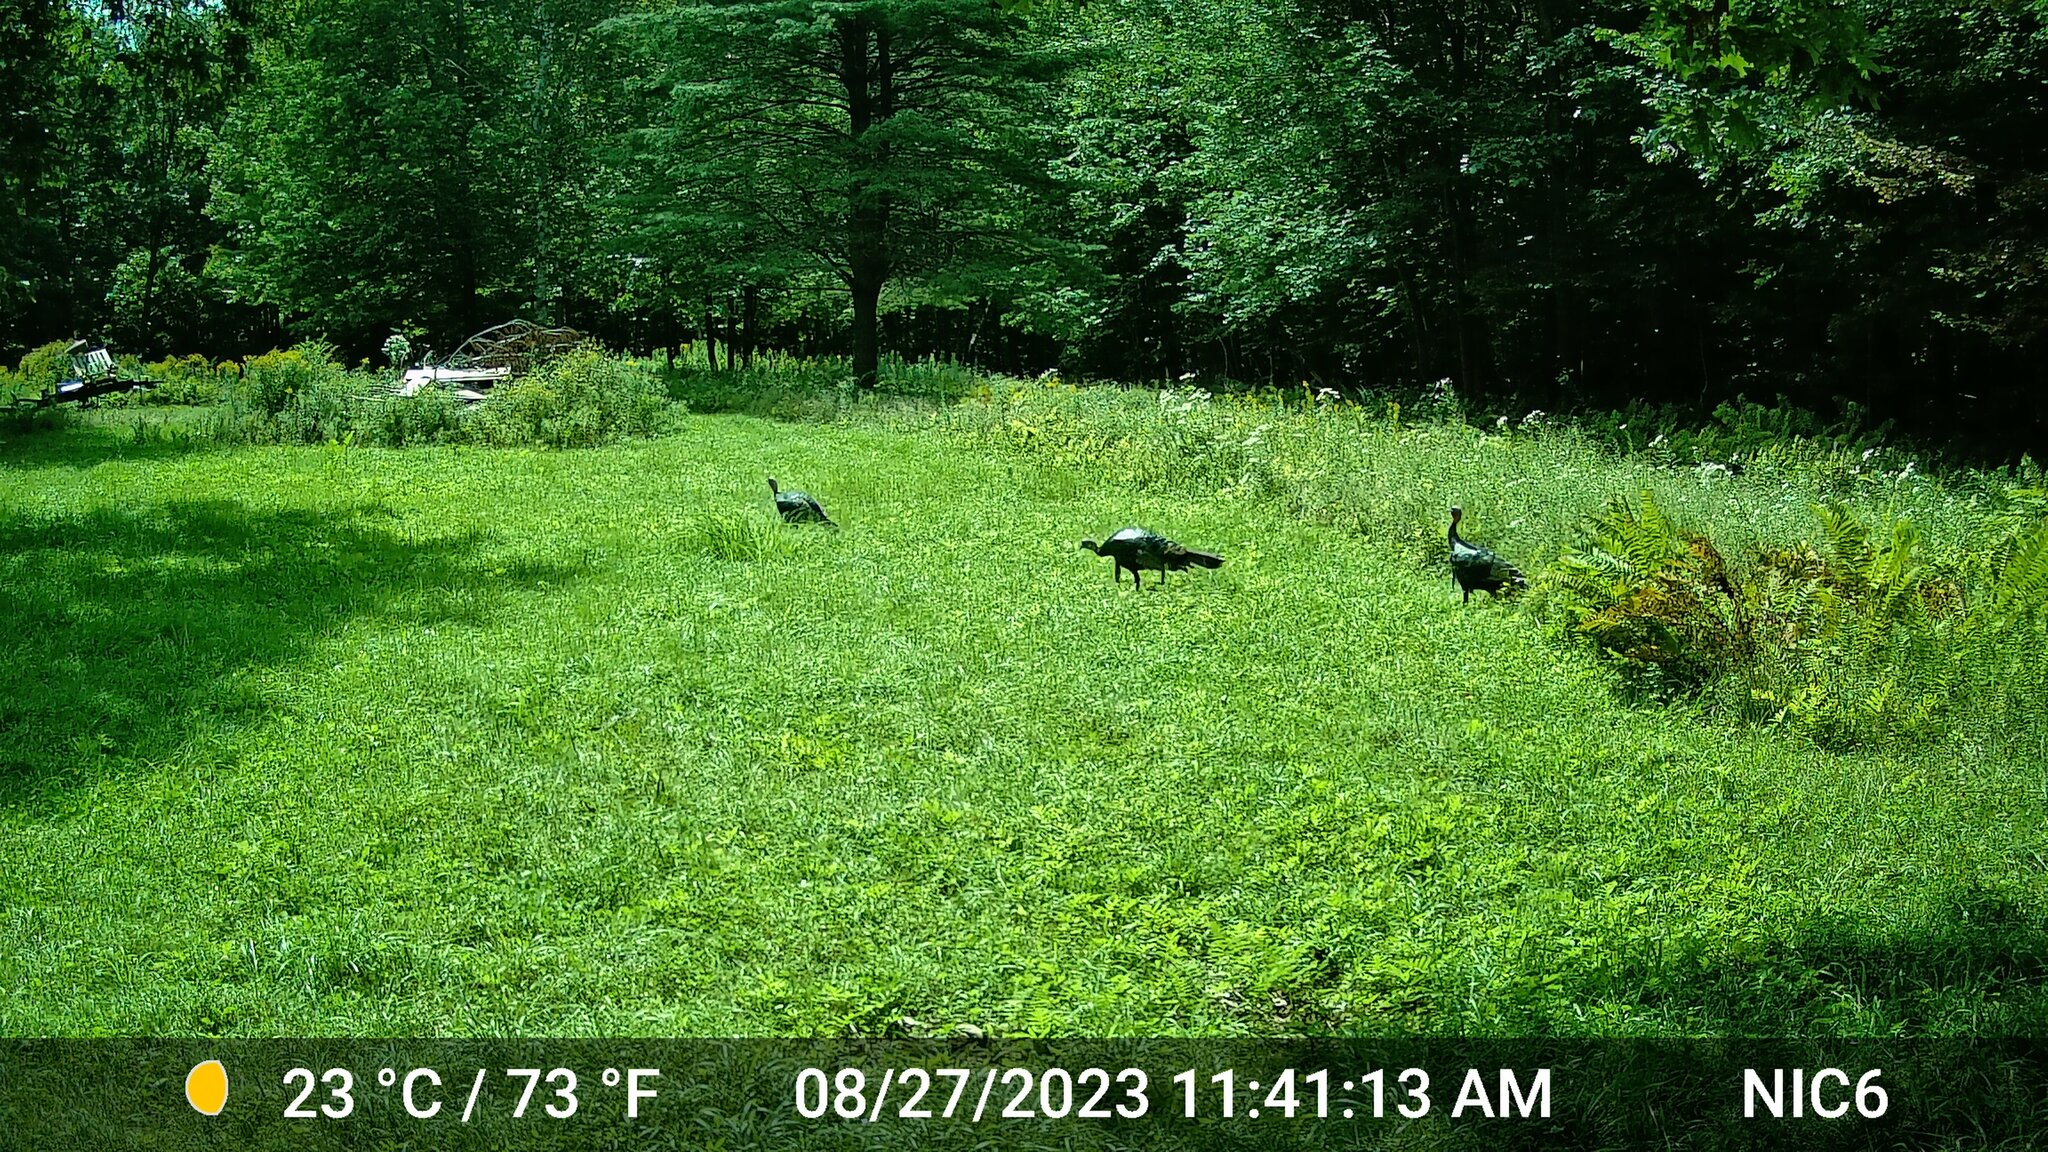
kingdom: Animalia
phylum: Chordata
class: Aves
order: Galliformes
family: Phasianidae
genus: Meleagris
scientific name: Meleagris gallopavo
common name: Wild turkey
